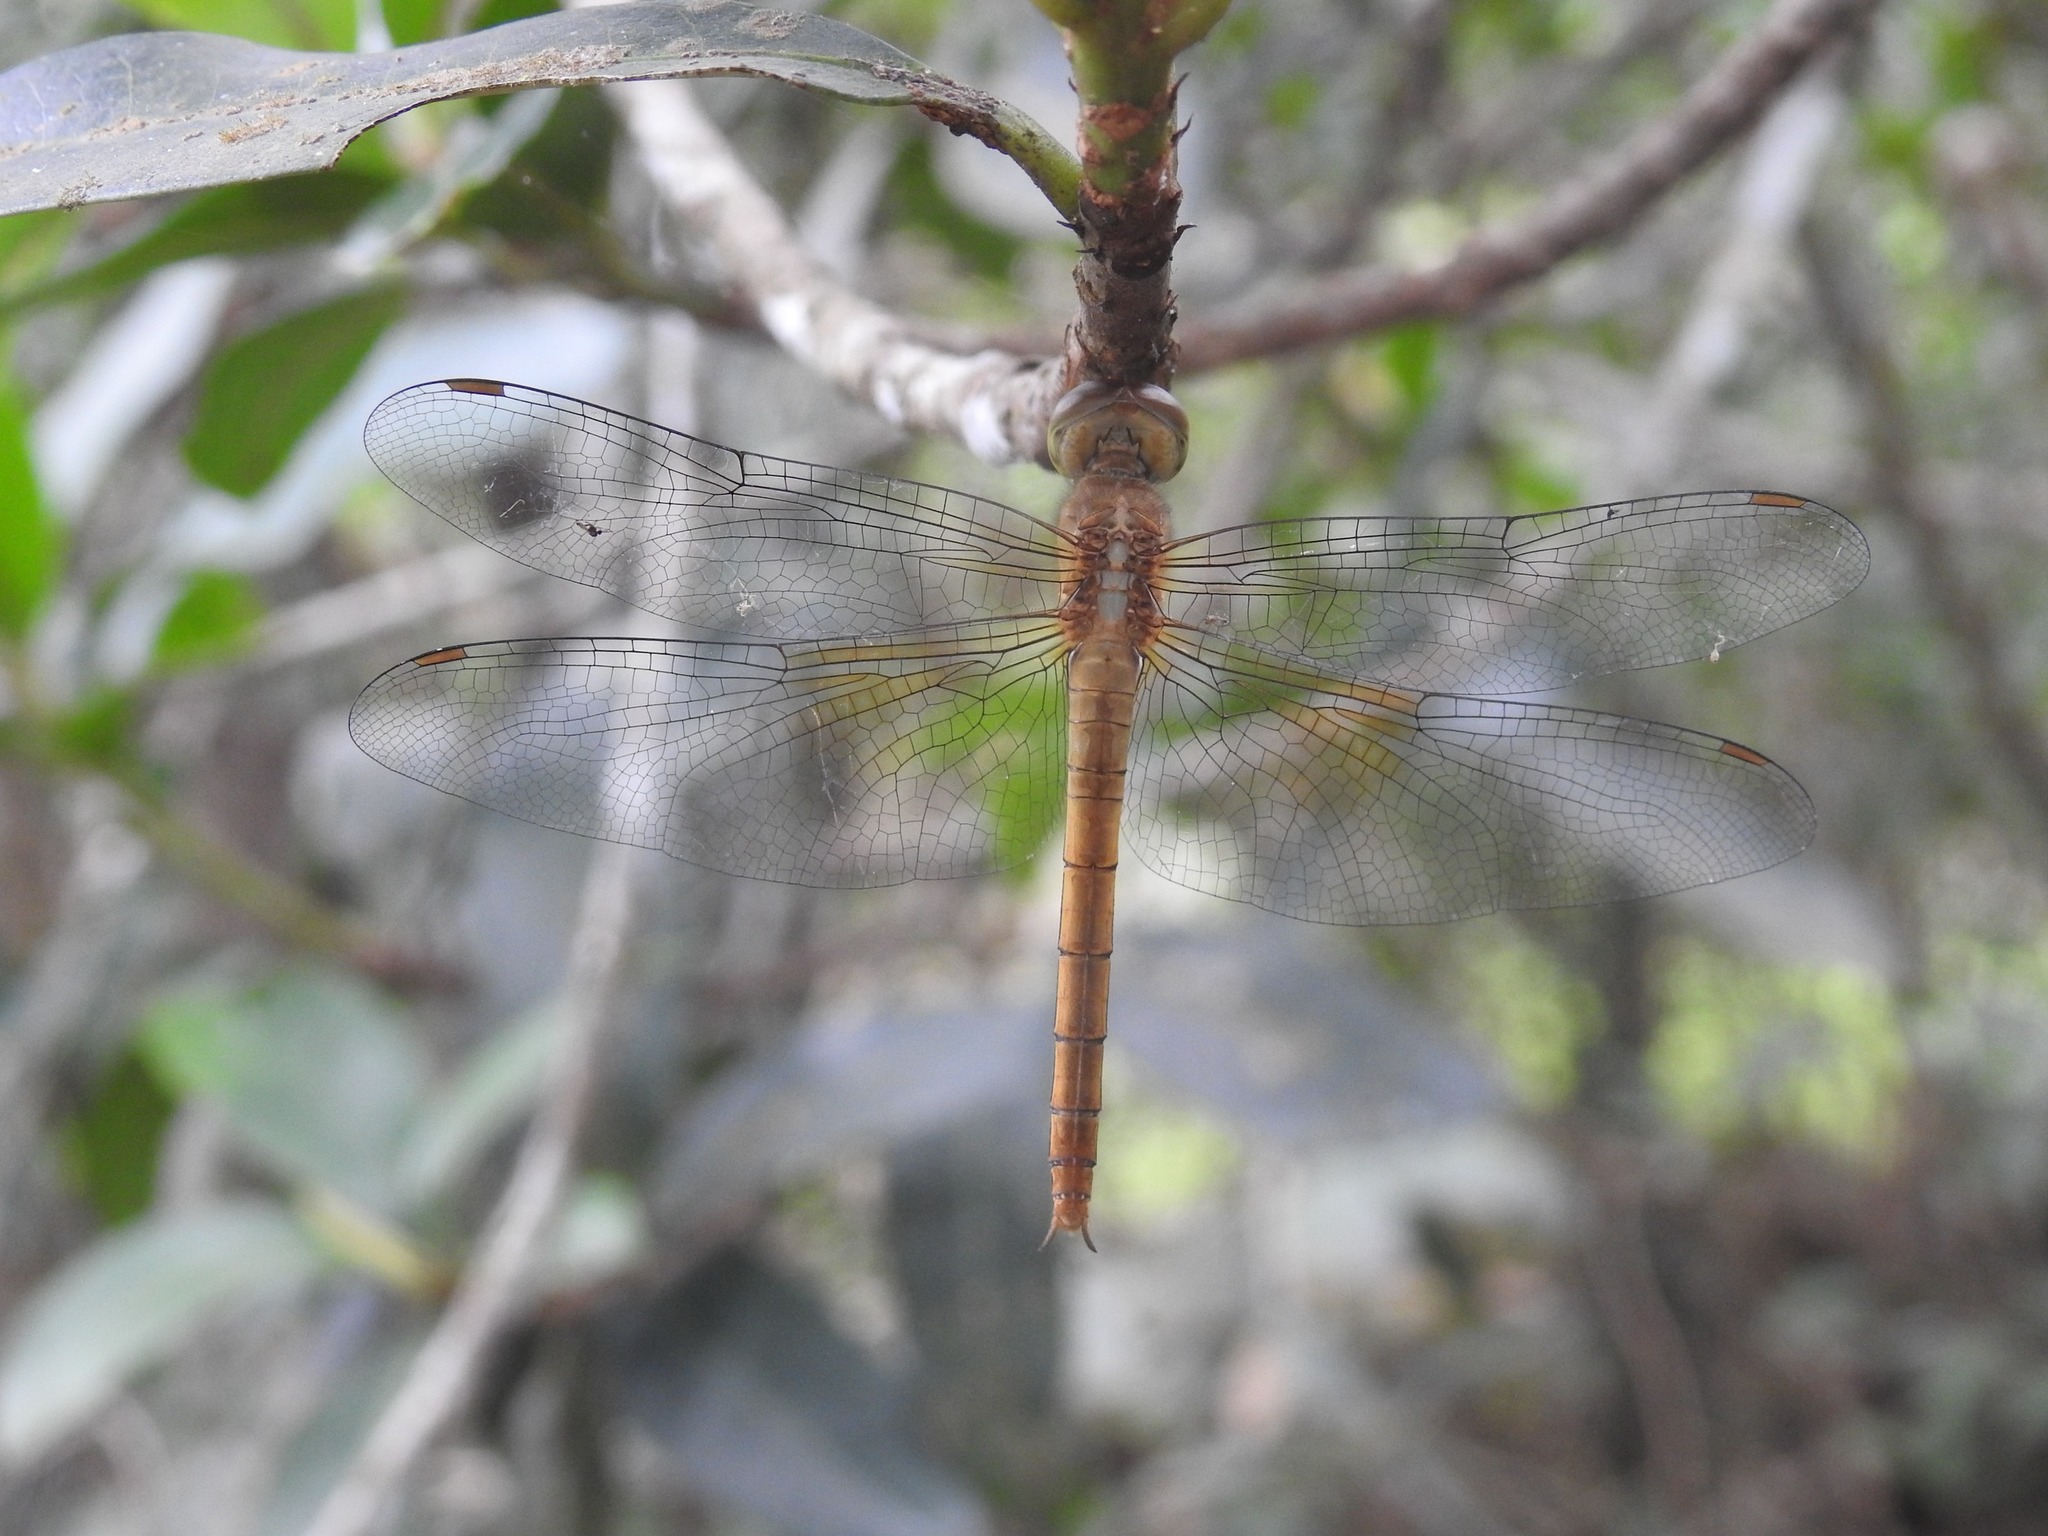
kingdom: Animalia
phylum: Arthropoda
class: Insecta
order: Odonata
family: Libellulidae
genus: Tholymis
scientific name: Tholymis tillarga
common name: Coral-tailed cloud wing
